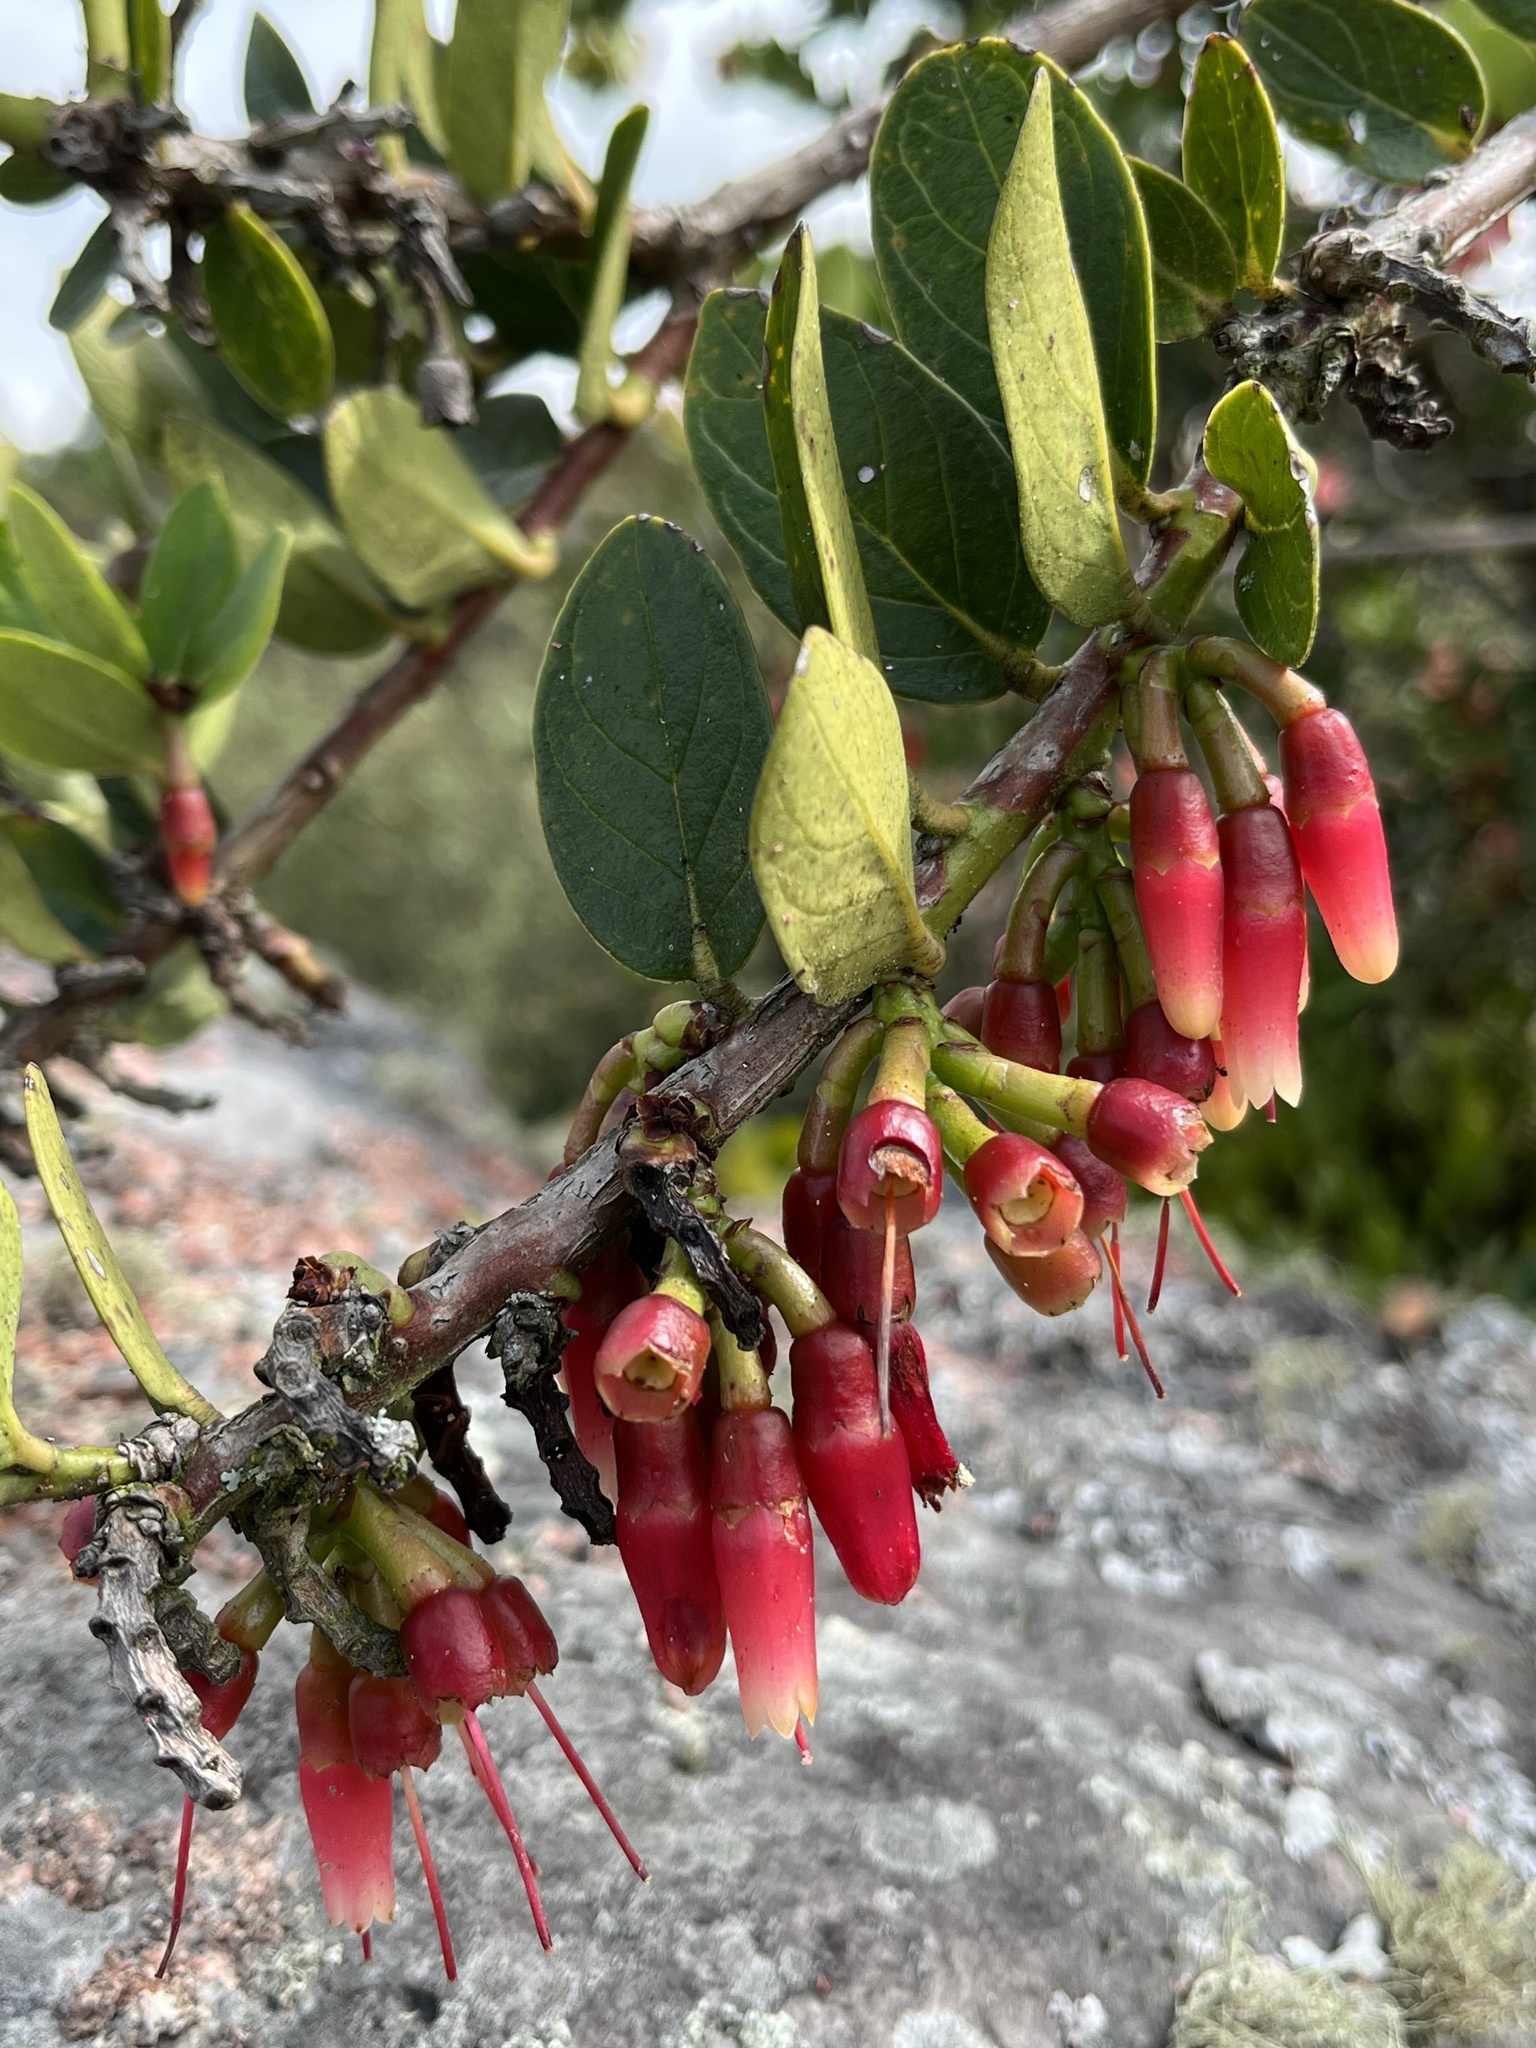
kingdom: Plantae
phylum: Tracheophyta
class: Magnoliopsida
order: Ericales
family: Ericaceae
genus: Macleania
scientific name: Macleania rupestris
